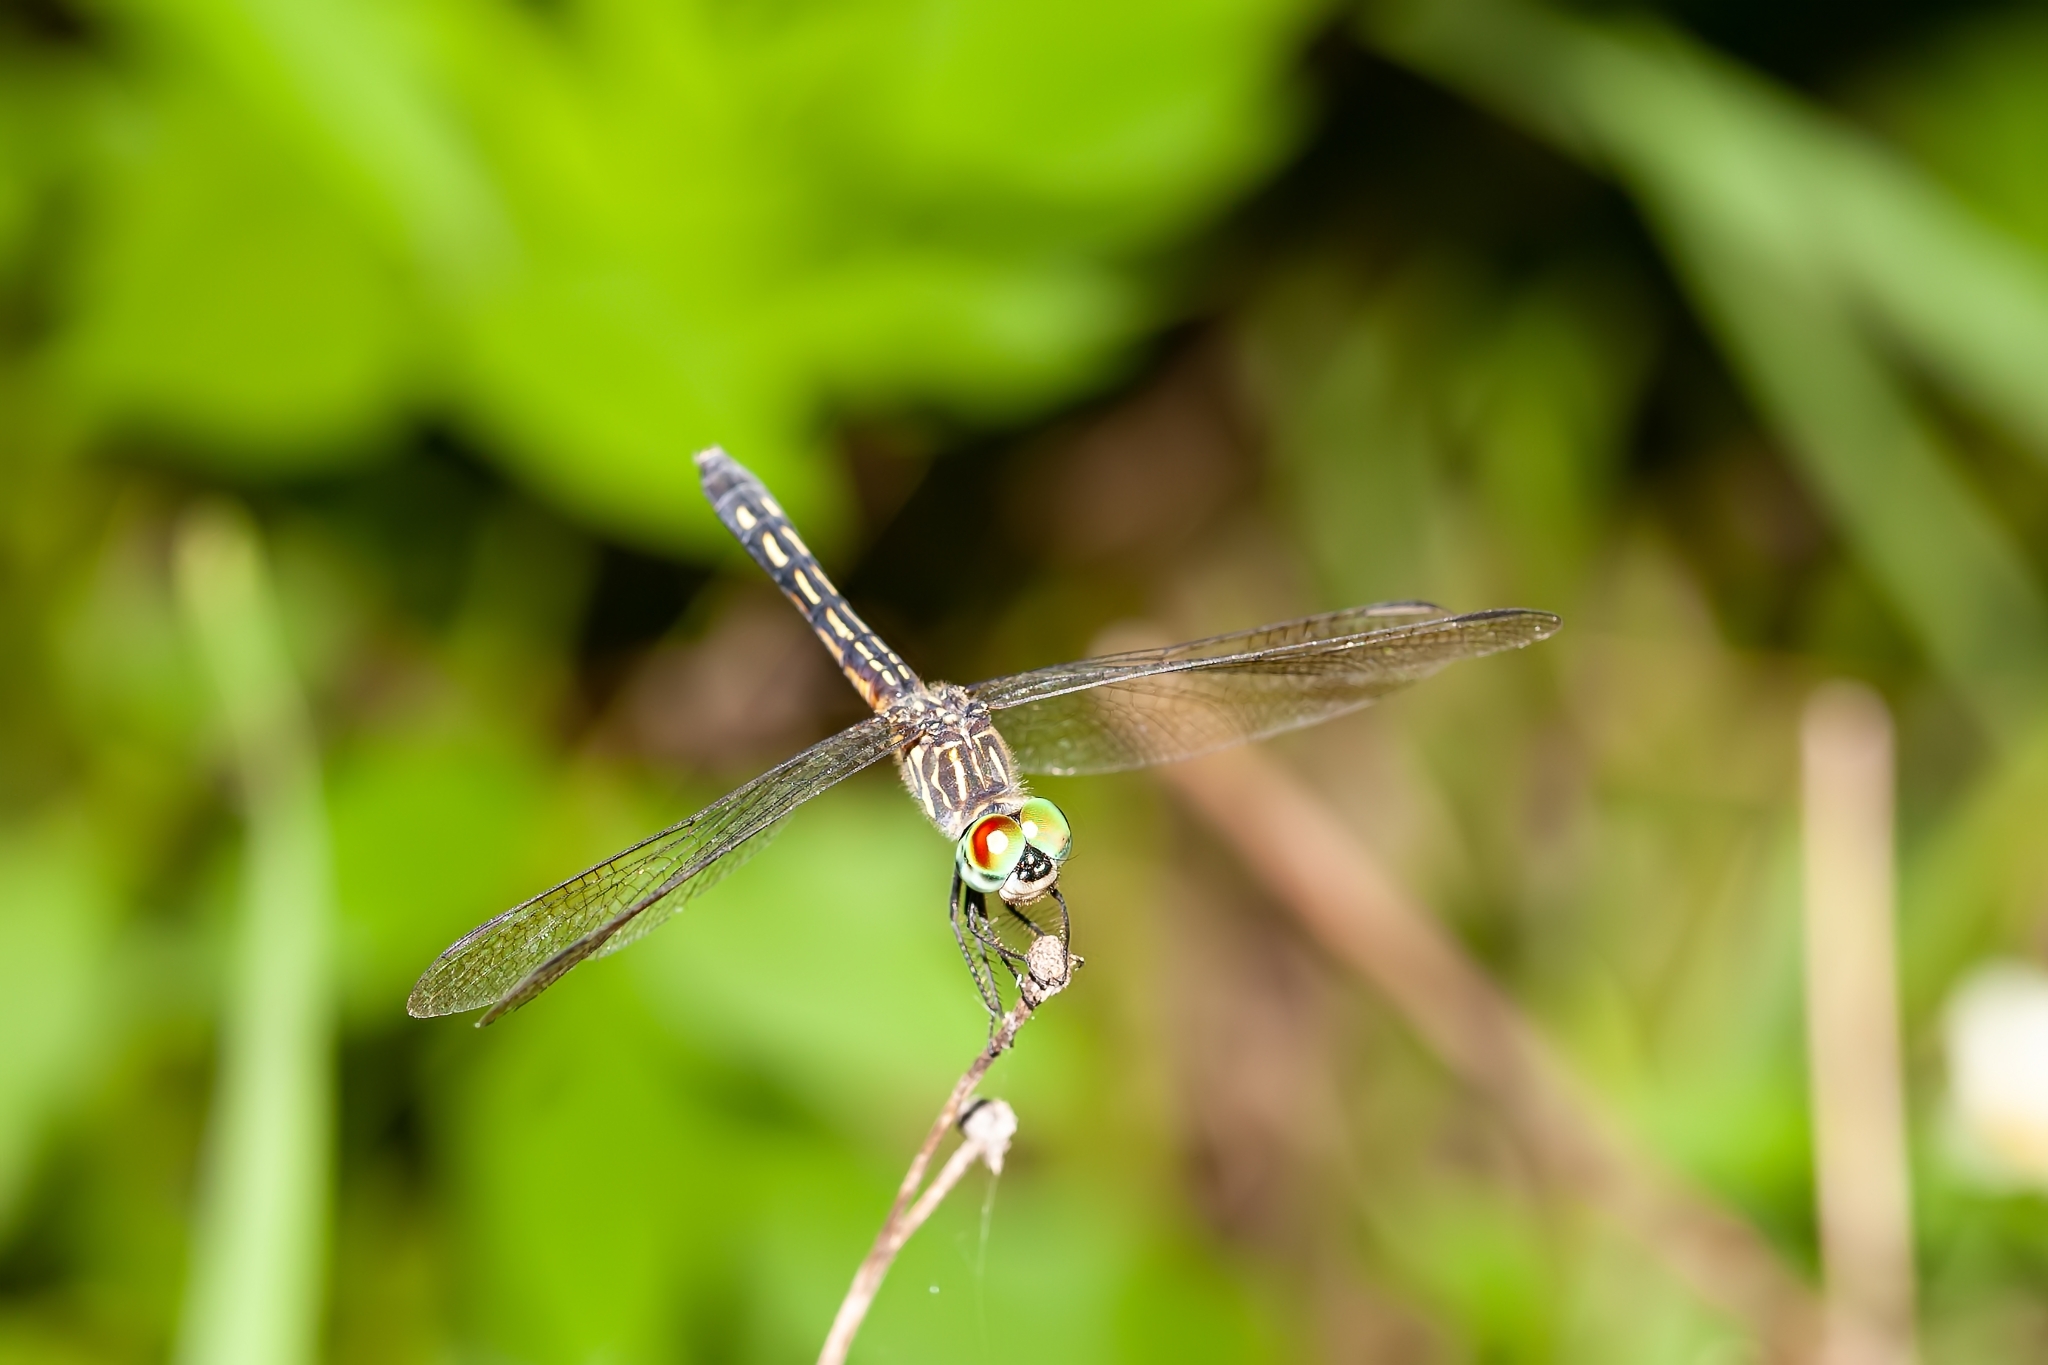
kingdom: Animalia
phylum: Arthropoda
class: Insecta
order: Odonata
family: Libellulidae
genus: Pachydiplax
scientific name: Pachydiplax longipennis
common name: Blue dasher
